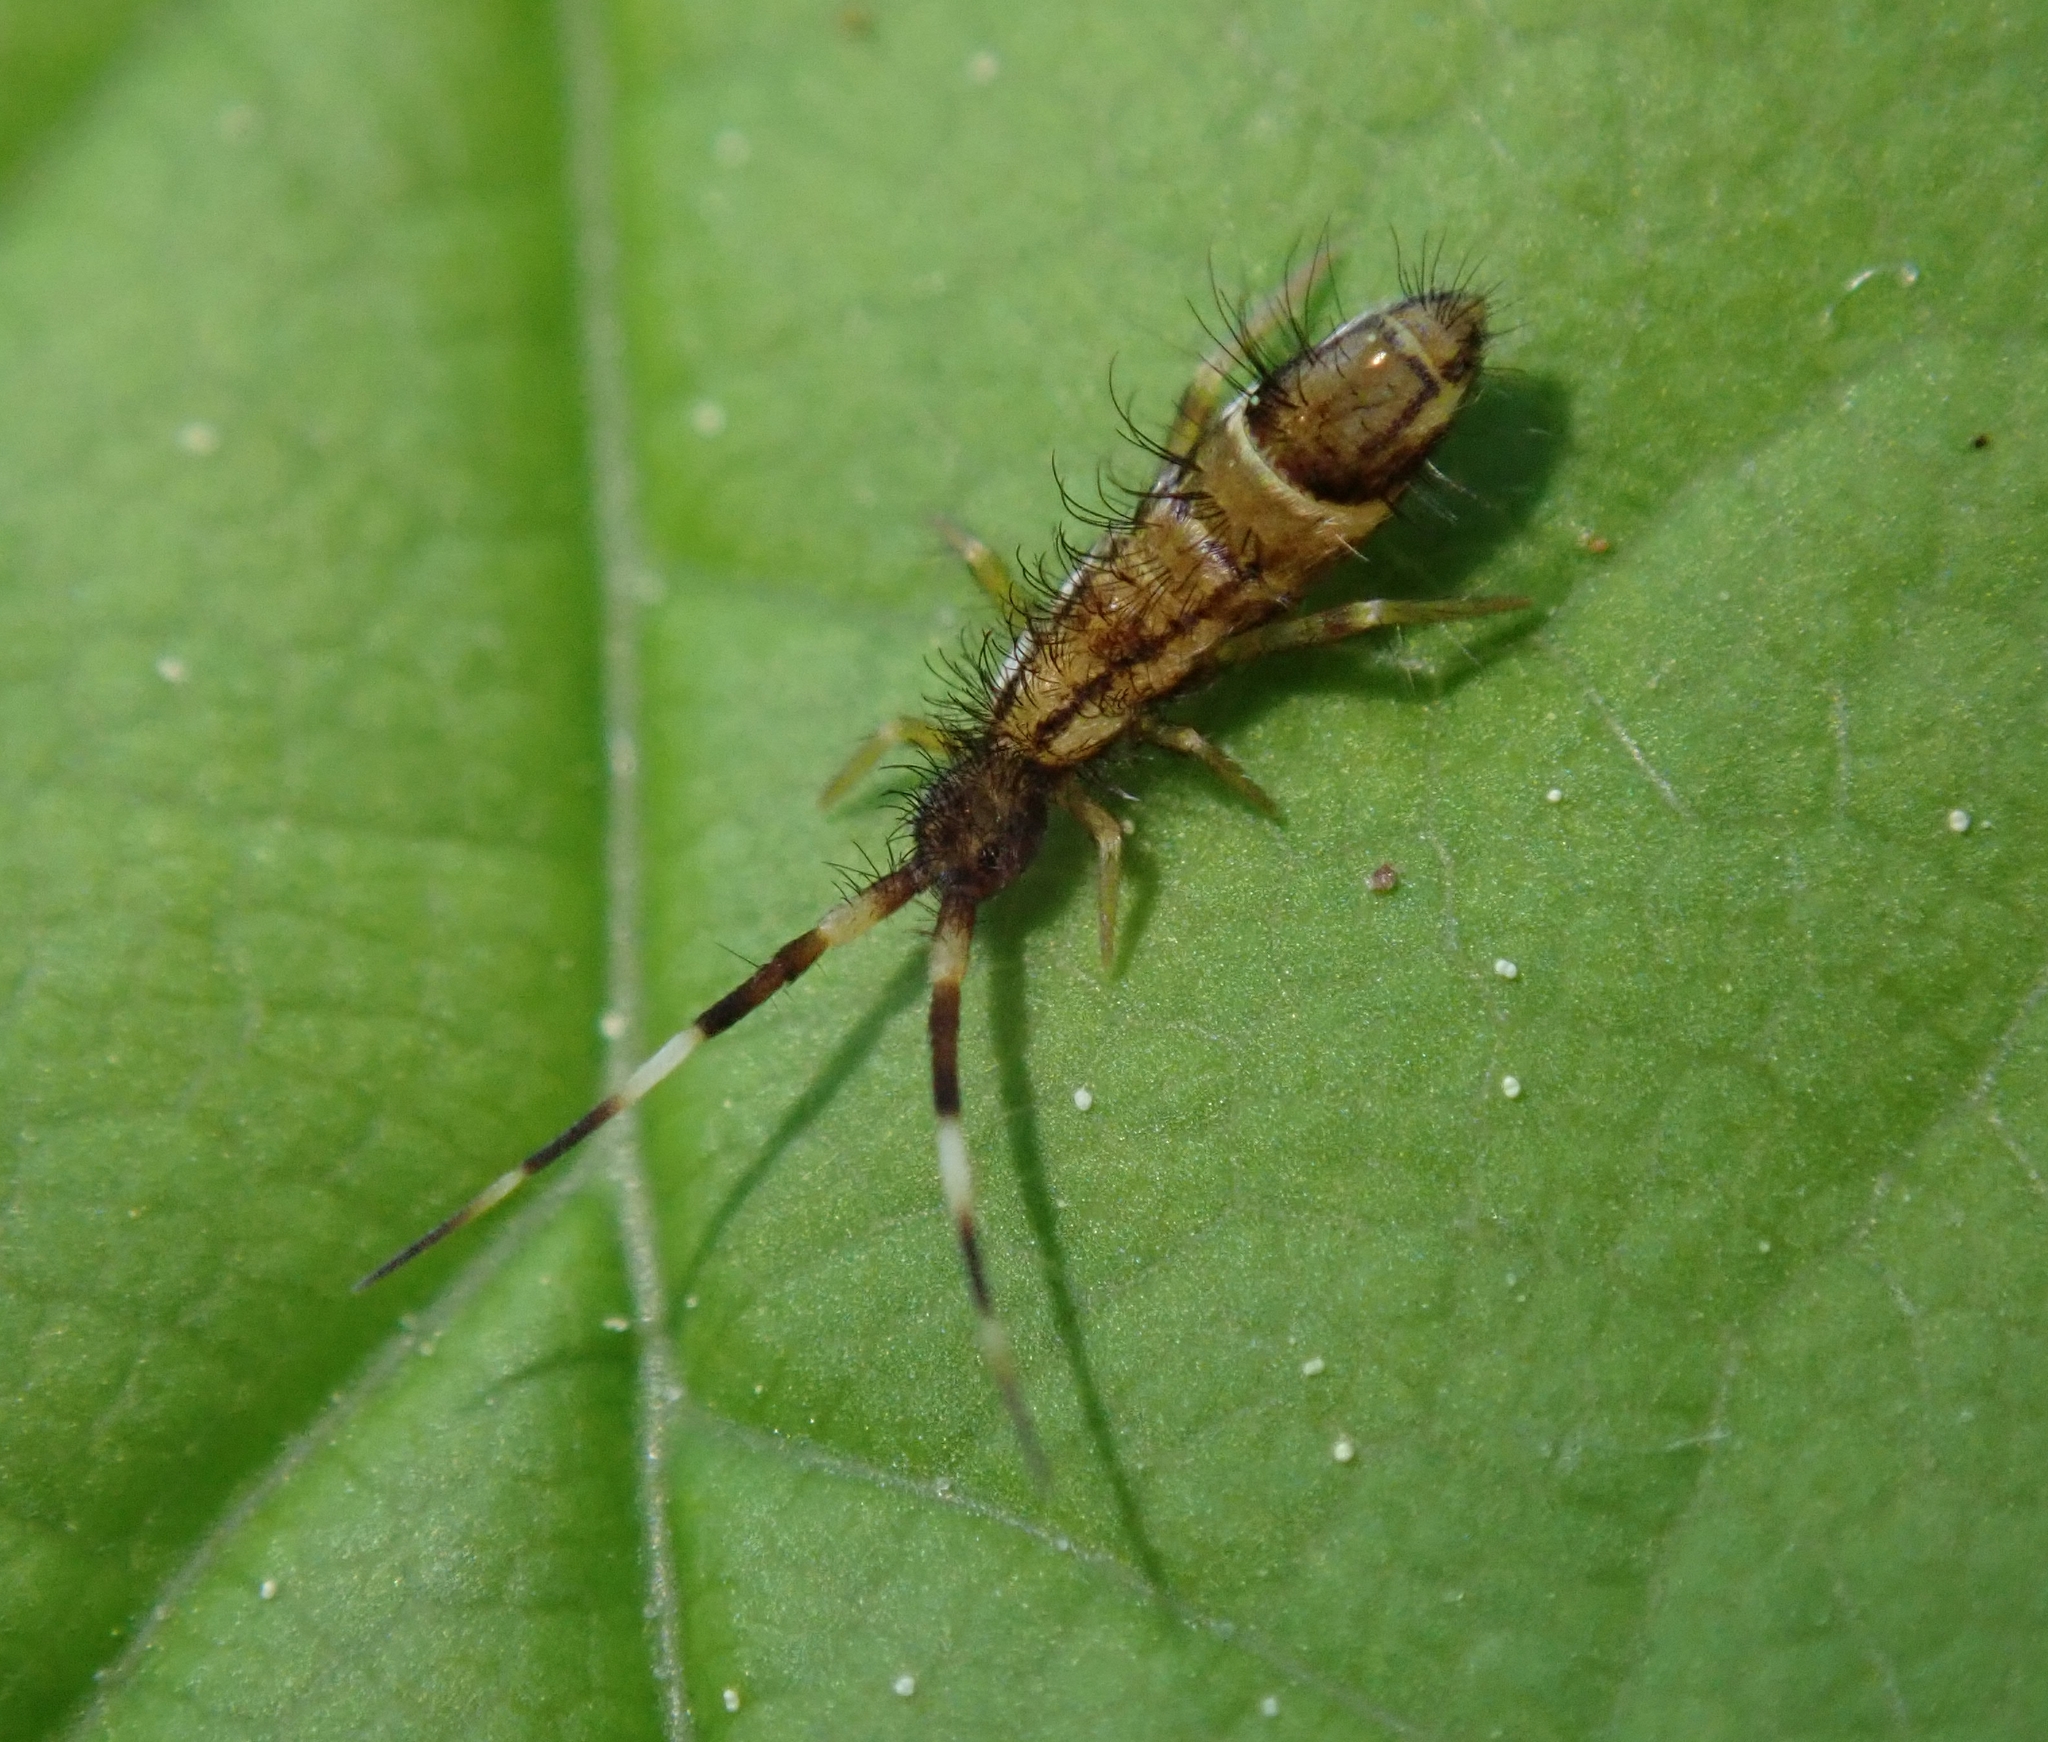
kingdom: Animalia
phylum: Arthropoda
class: Collembola
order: Entomobryomorpha
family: Entomobryidae
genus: Entomobrya
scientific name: Entomobrya nivalis
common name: Cosmopolitan springtail
